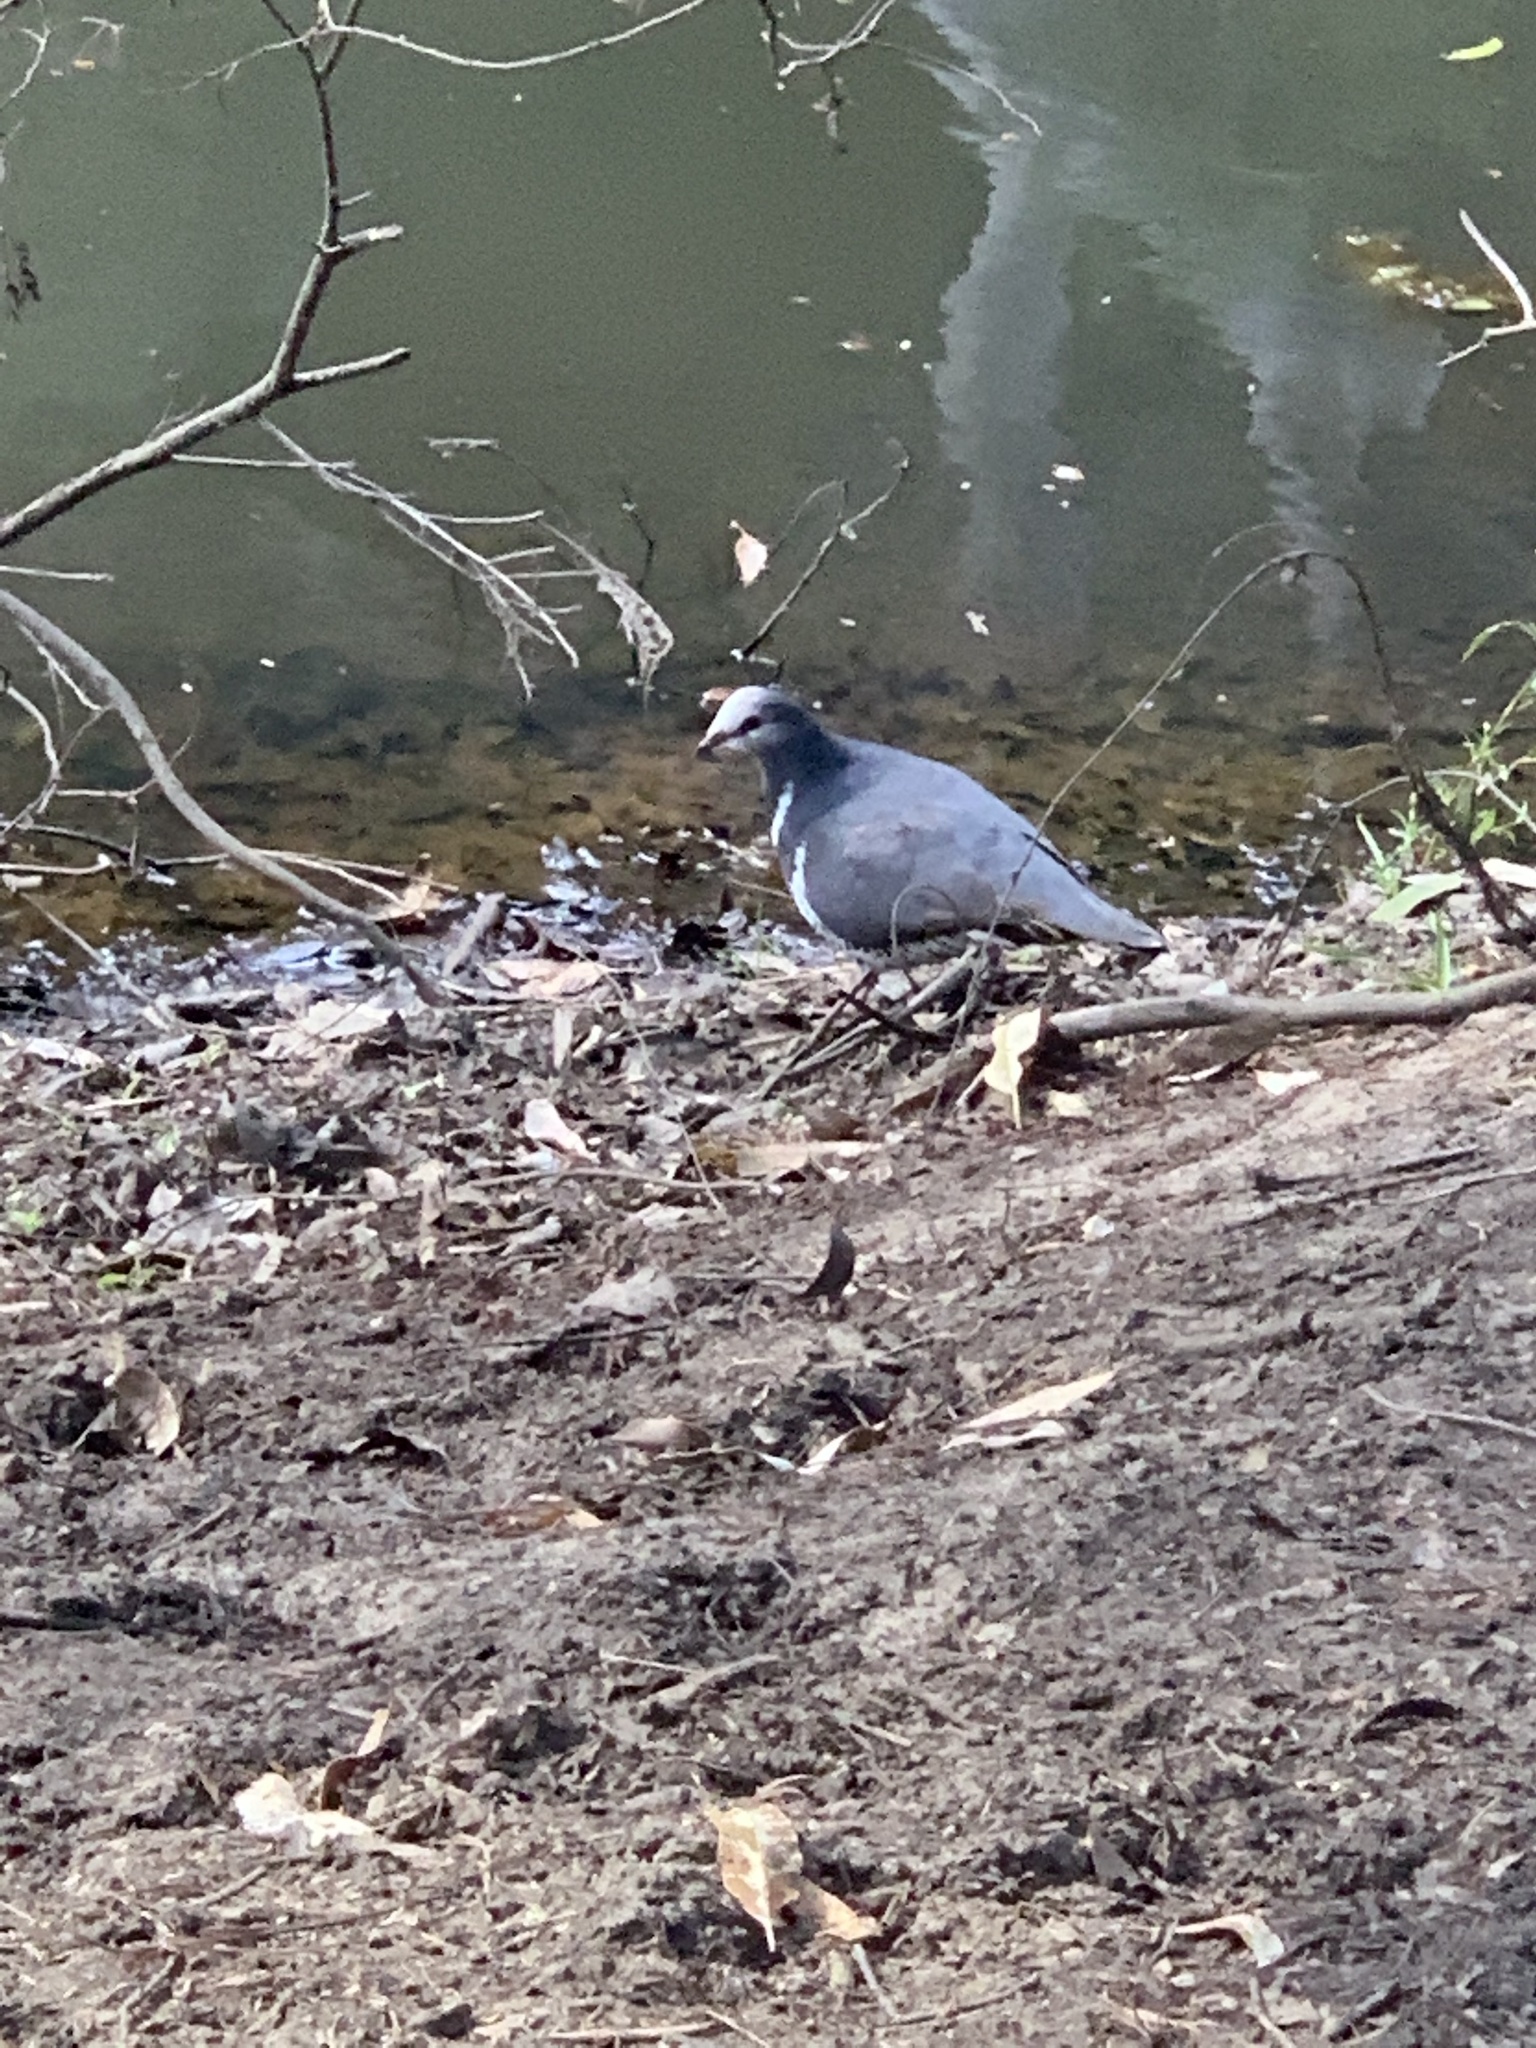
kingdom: Animalia
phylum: Chordata
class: Aves
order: Columbiformes
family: Columbidae
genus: Leucosarcia
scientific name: Leucosarcia melanoleuca
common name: Wonga pigeon
